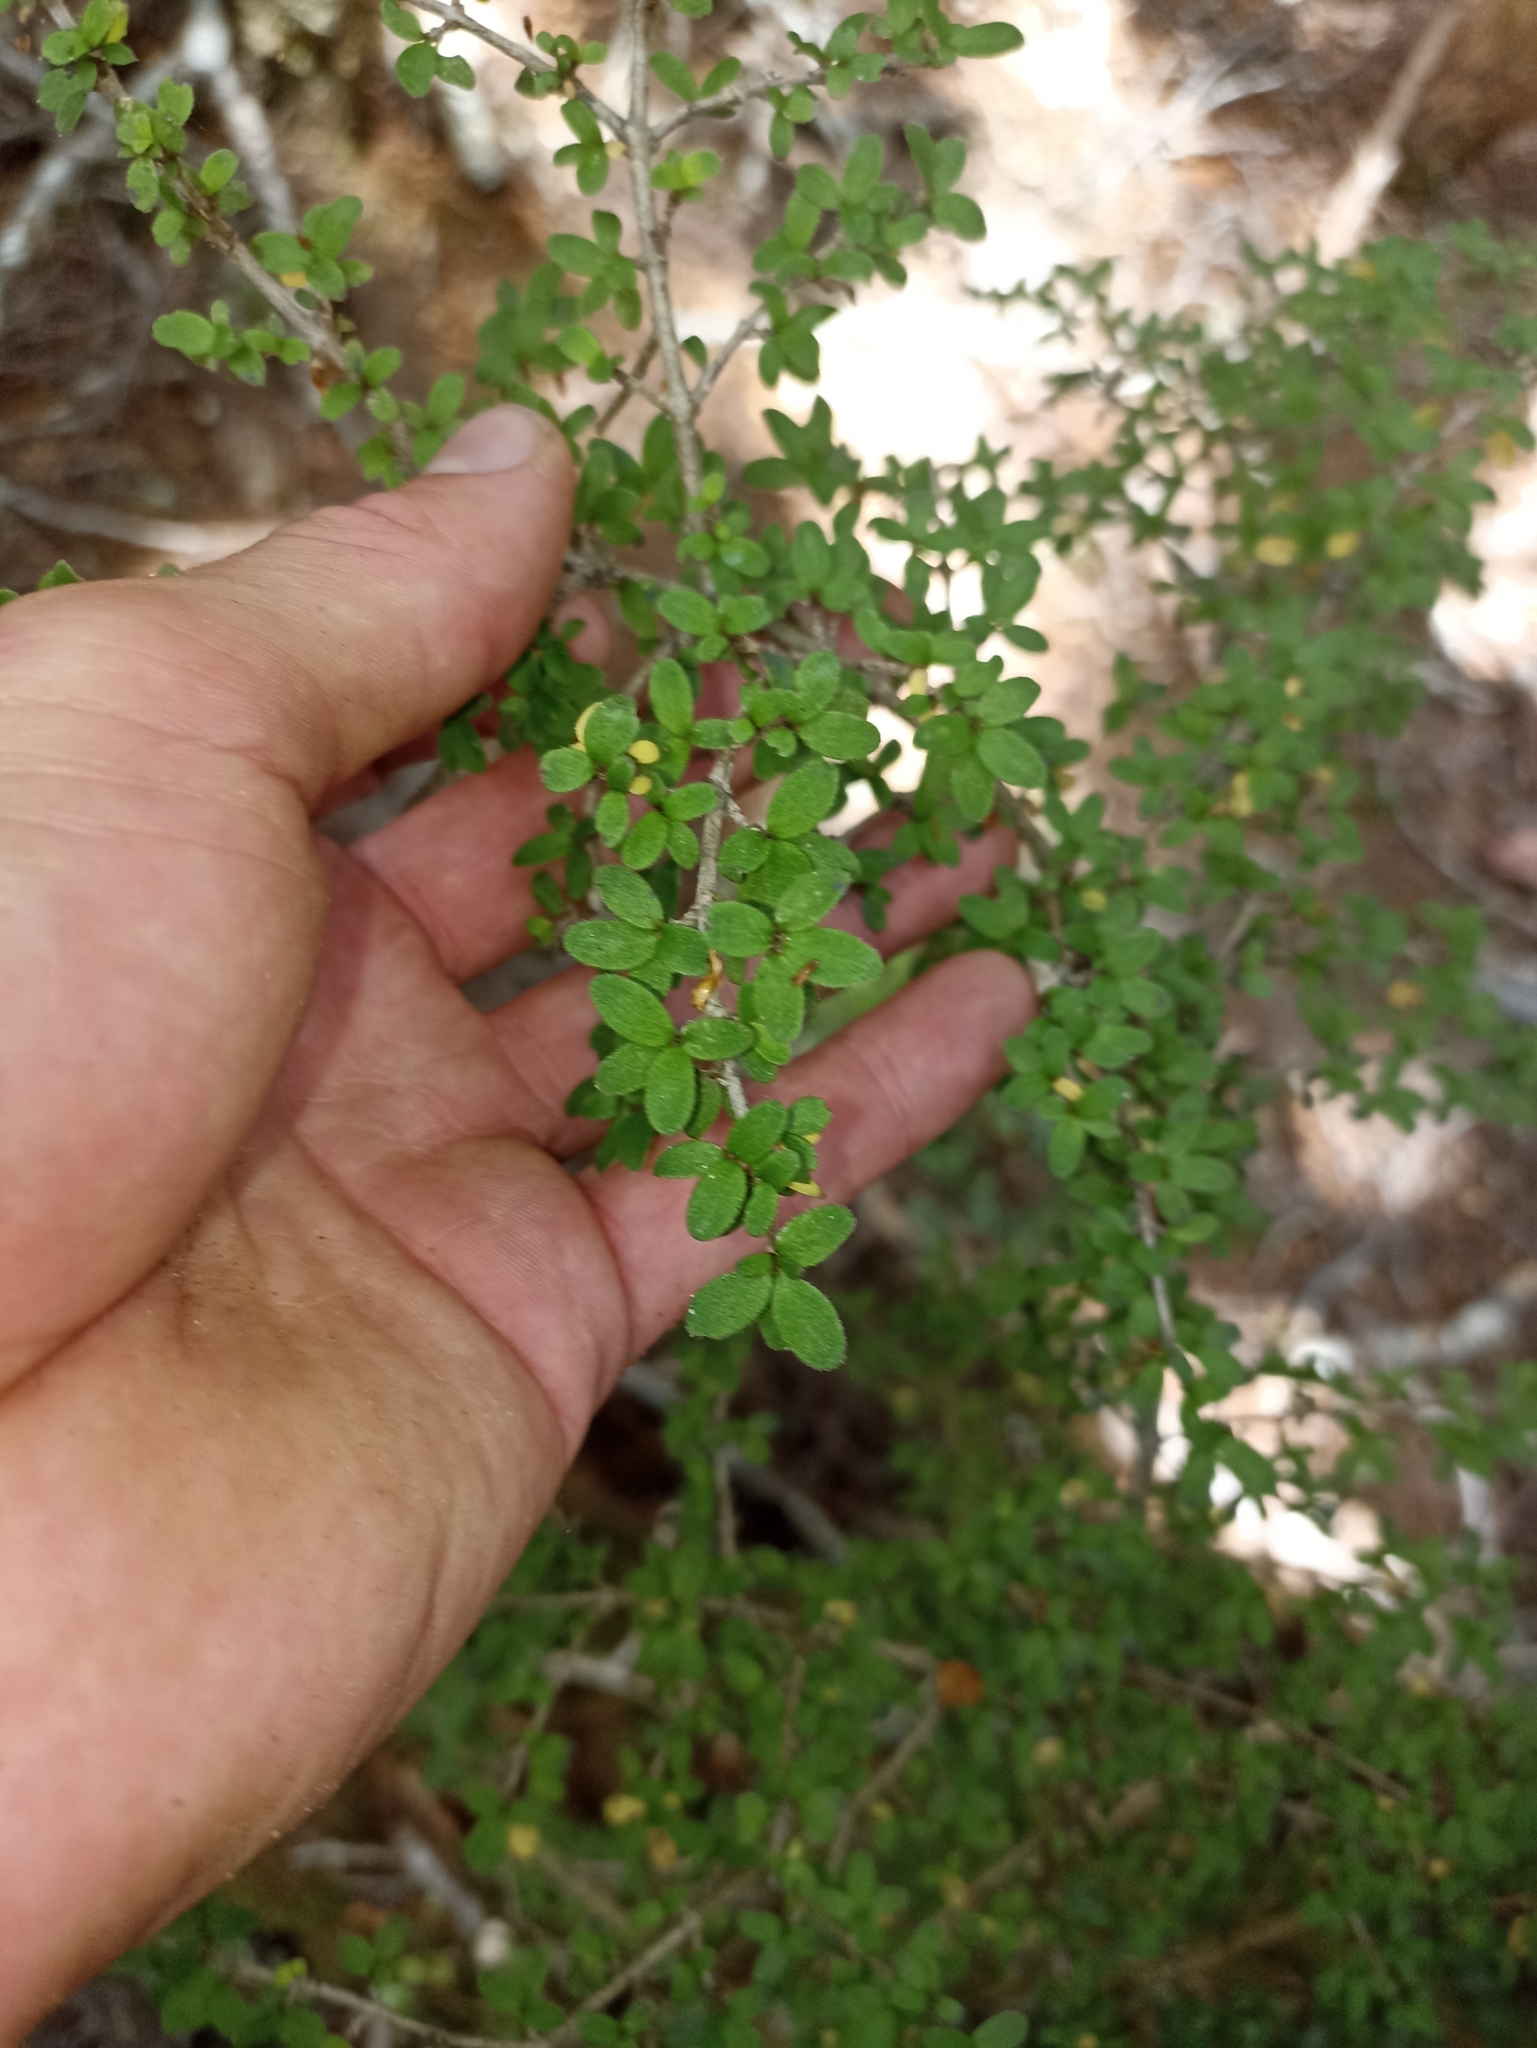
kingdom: Plantae
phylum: Tracheophyta
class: Magnoliopsida
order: Gentianales
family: Rubiaceae
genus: Coprosma
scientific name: Coprosma pseudociliata
